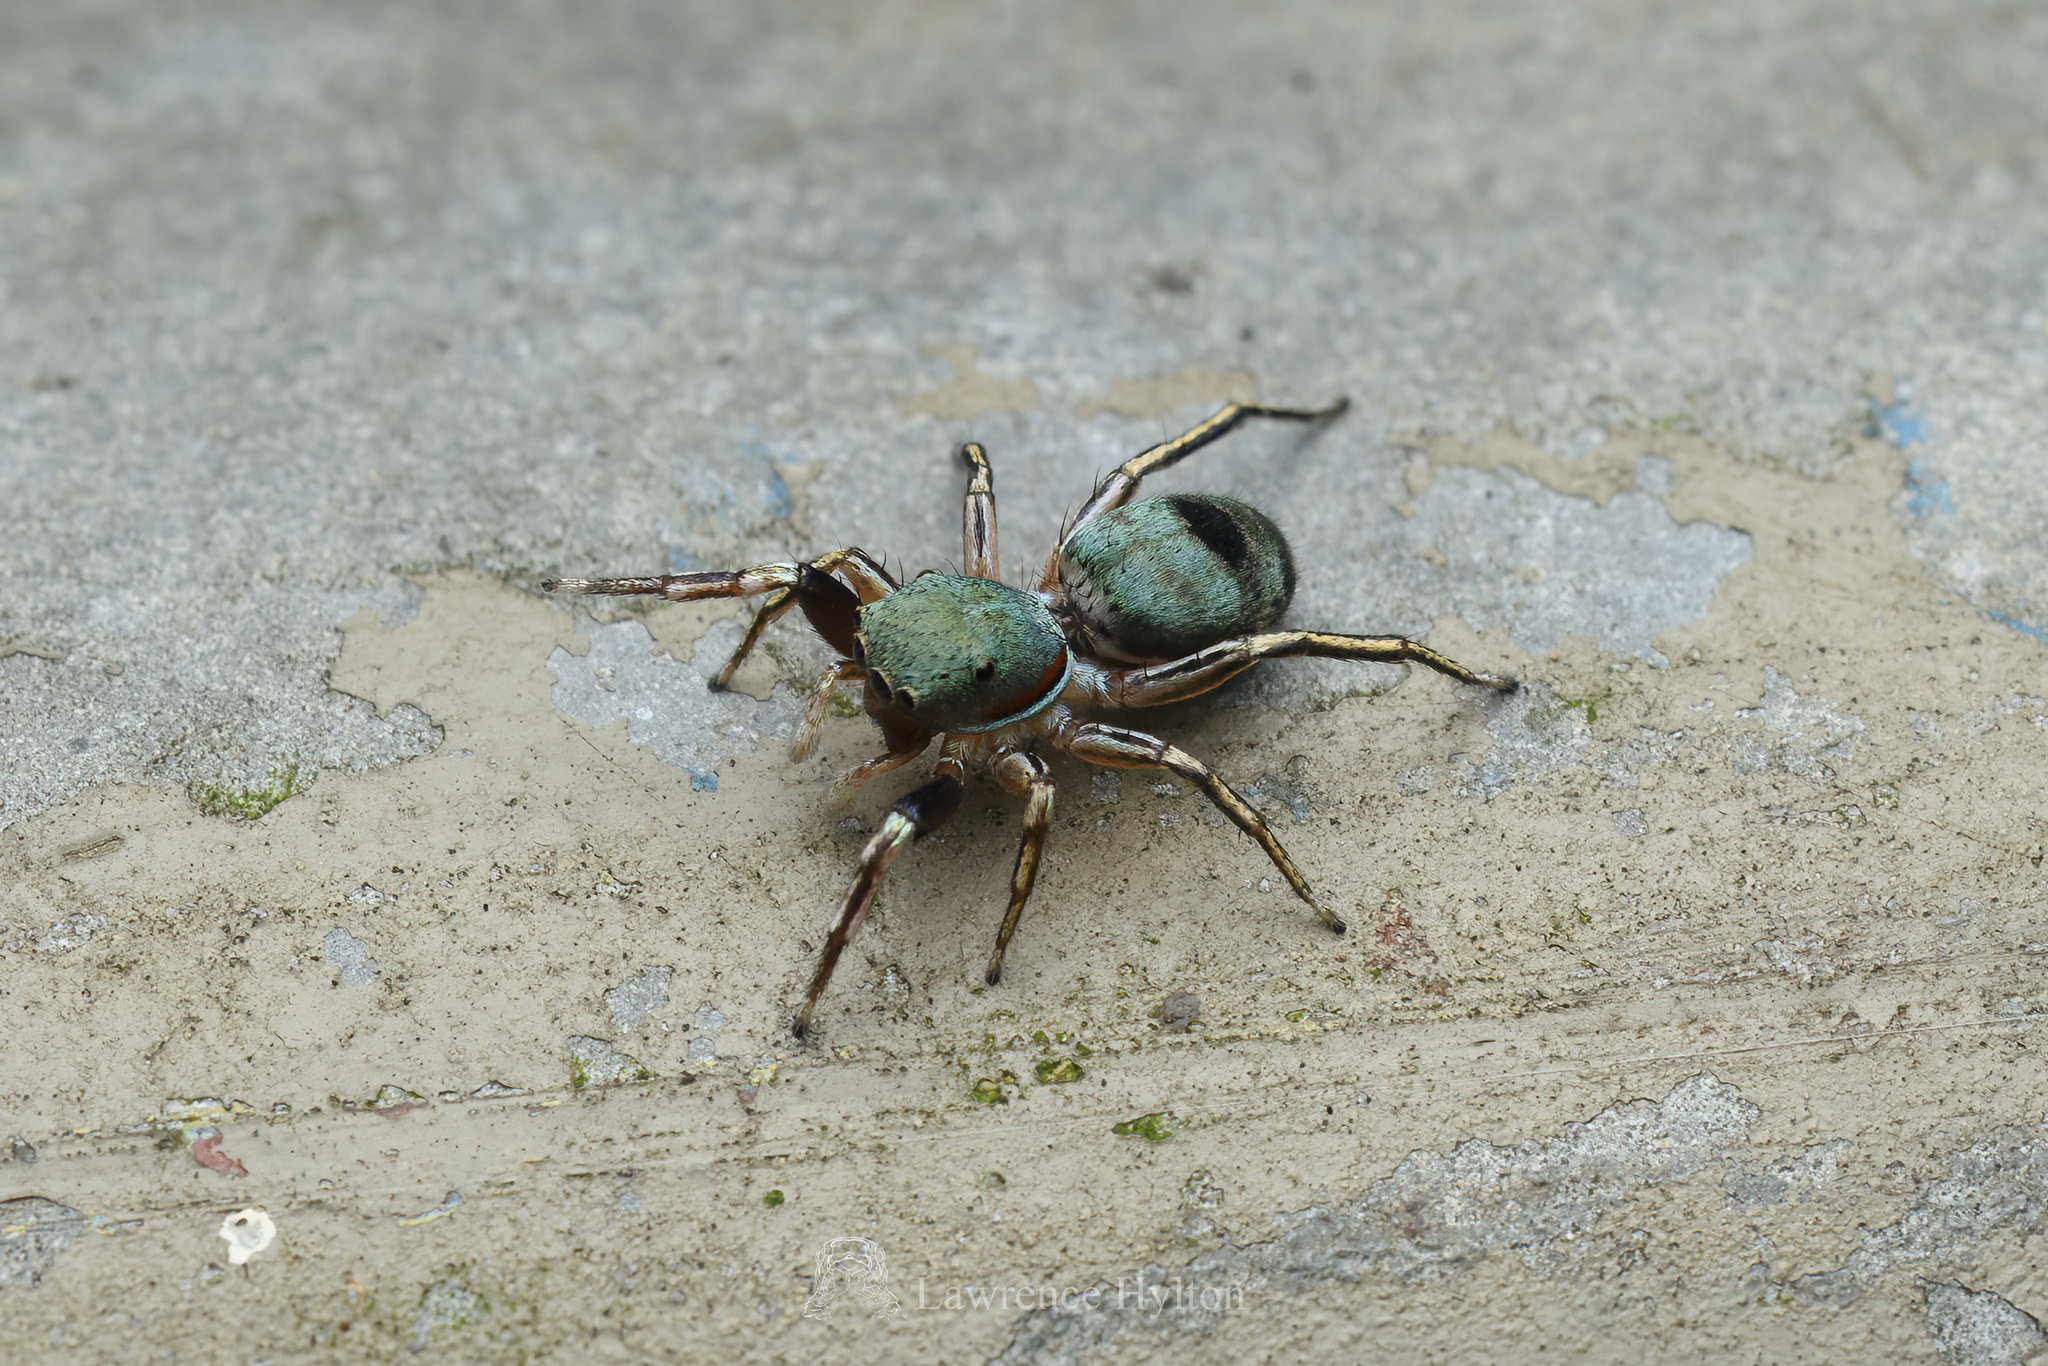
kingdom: Animalia
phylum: Arthropoda
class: Arachnida
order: Araneae
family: Salticidae
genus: Siler
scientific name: Siler collingwoodi
